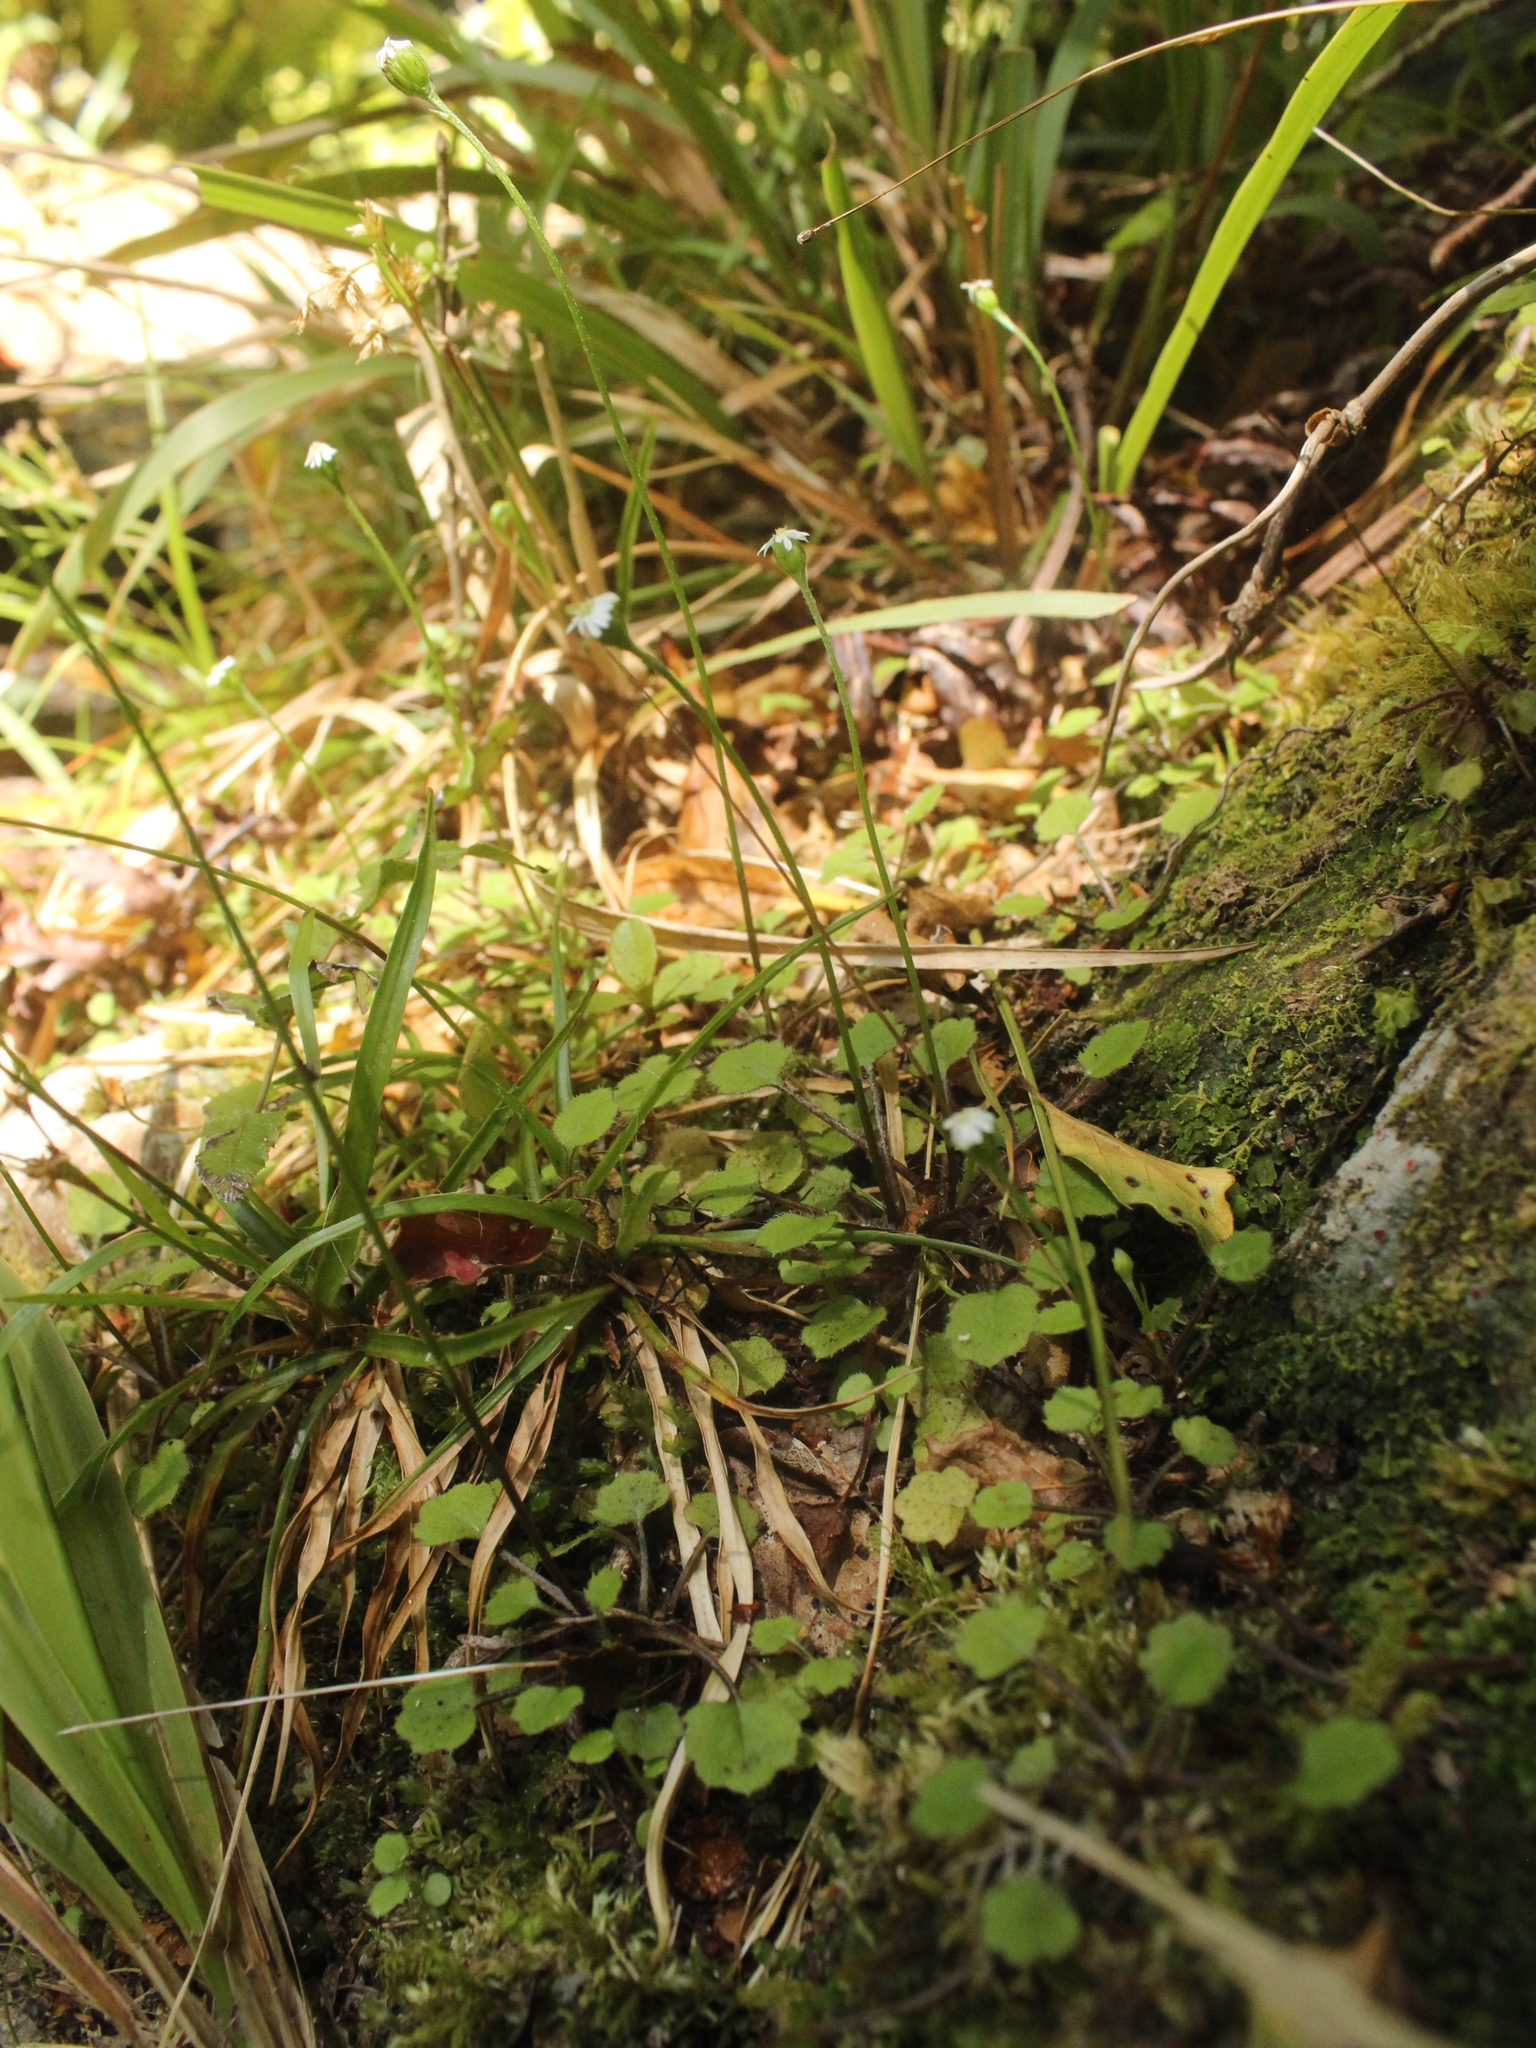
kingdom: Plantae
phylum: Tracheophyta
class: Magnoliopsida
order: Asterales
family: Asteraceae
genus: Lagenophora
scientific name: Lagenophora strangulata
